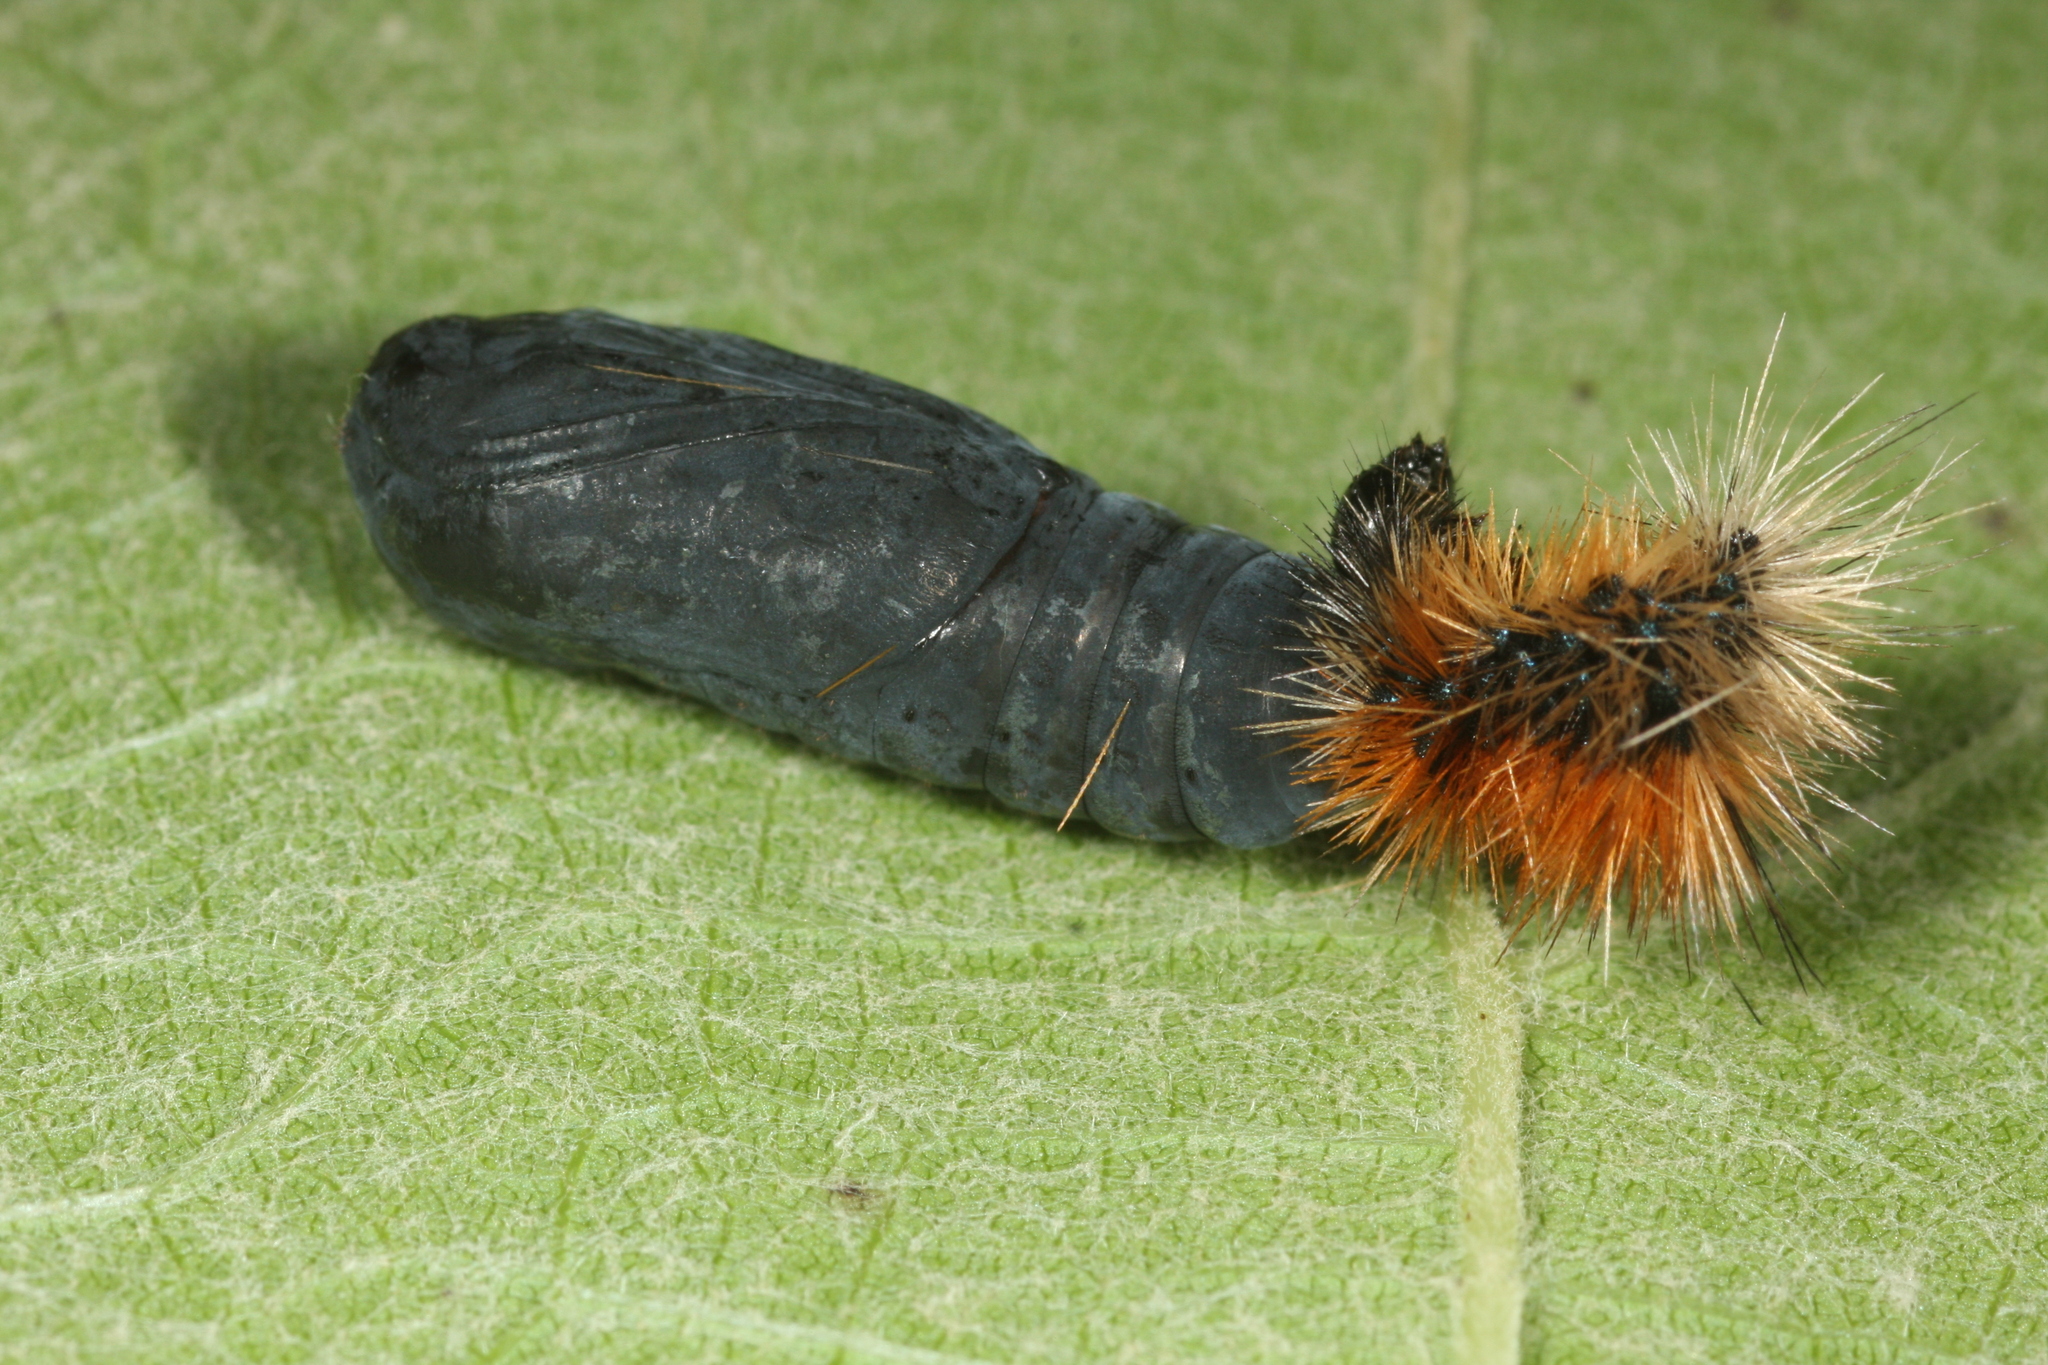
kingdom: Animalia
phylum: Arthropoda
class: Insecta
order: Lepidoptera
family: Erebidae
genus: Parasemia
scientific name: Parasemia plantaginis
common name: Wood tiger
